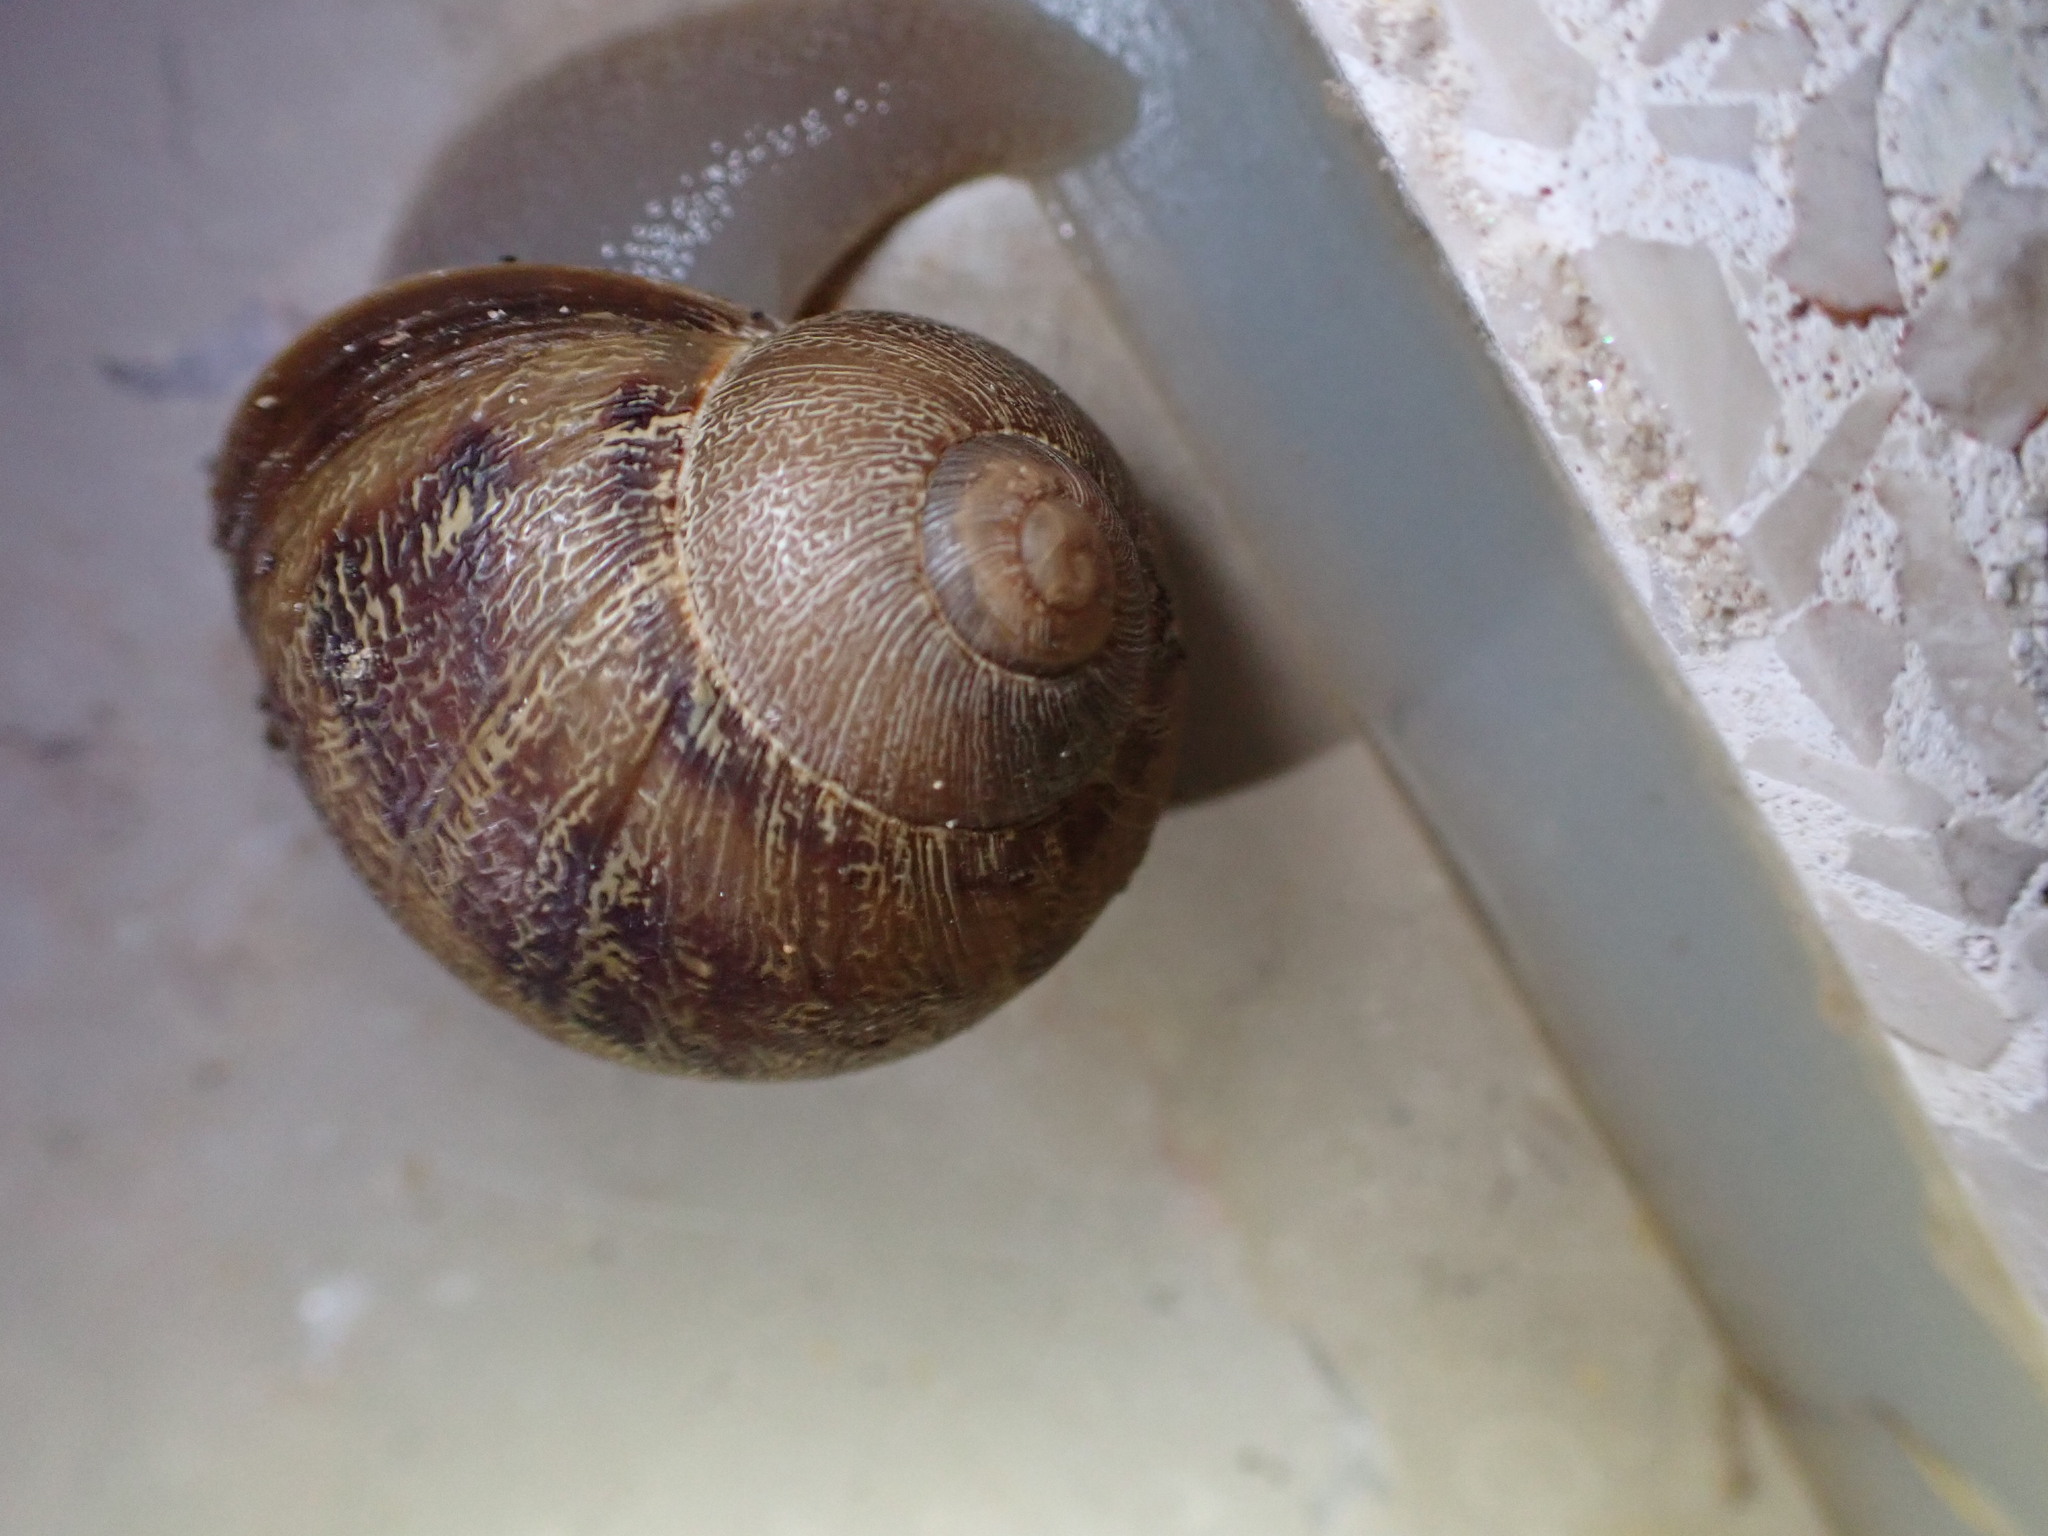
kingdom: Animalia
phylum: Mollusca
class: Gastropoda
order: Stylommatophora
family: Helicidae
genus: Cornu
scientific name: Cornu aspersum
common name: Brown garden snail
